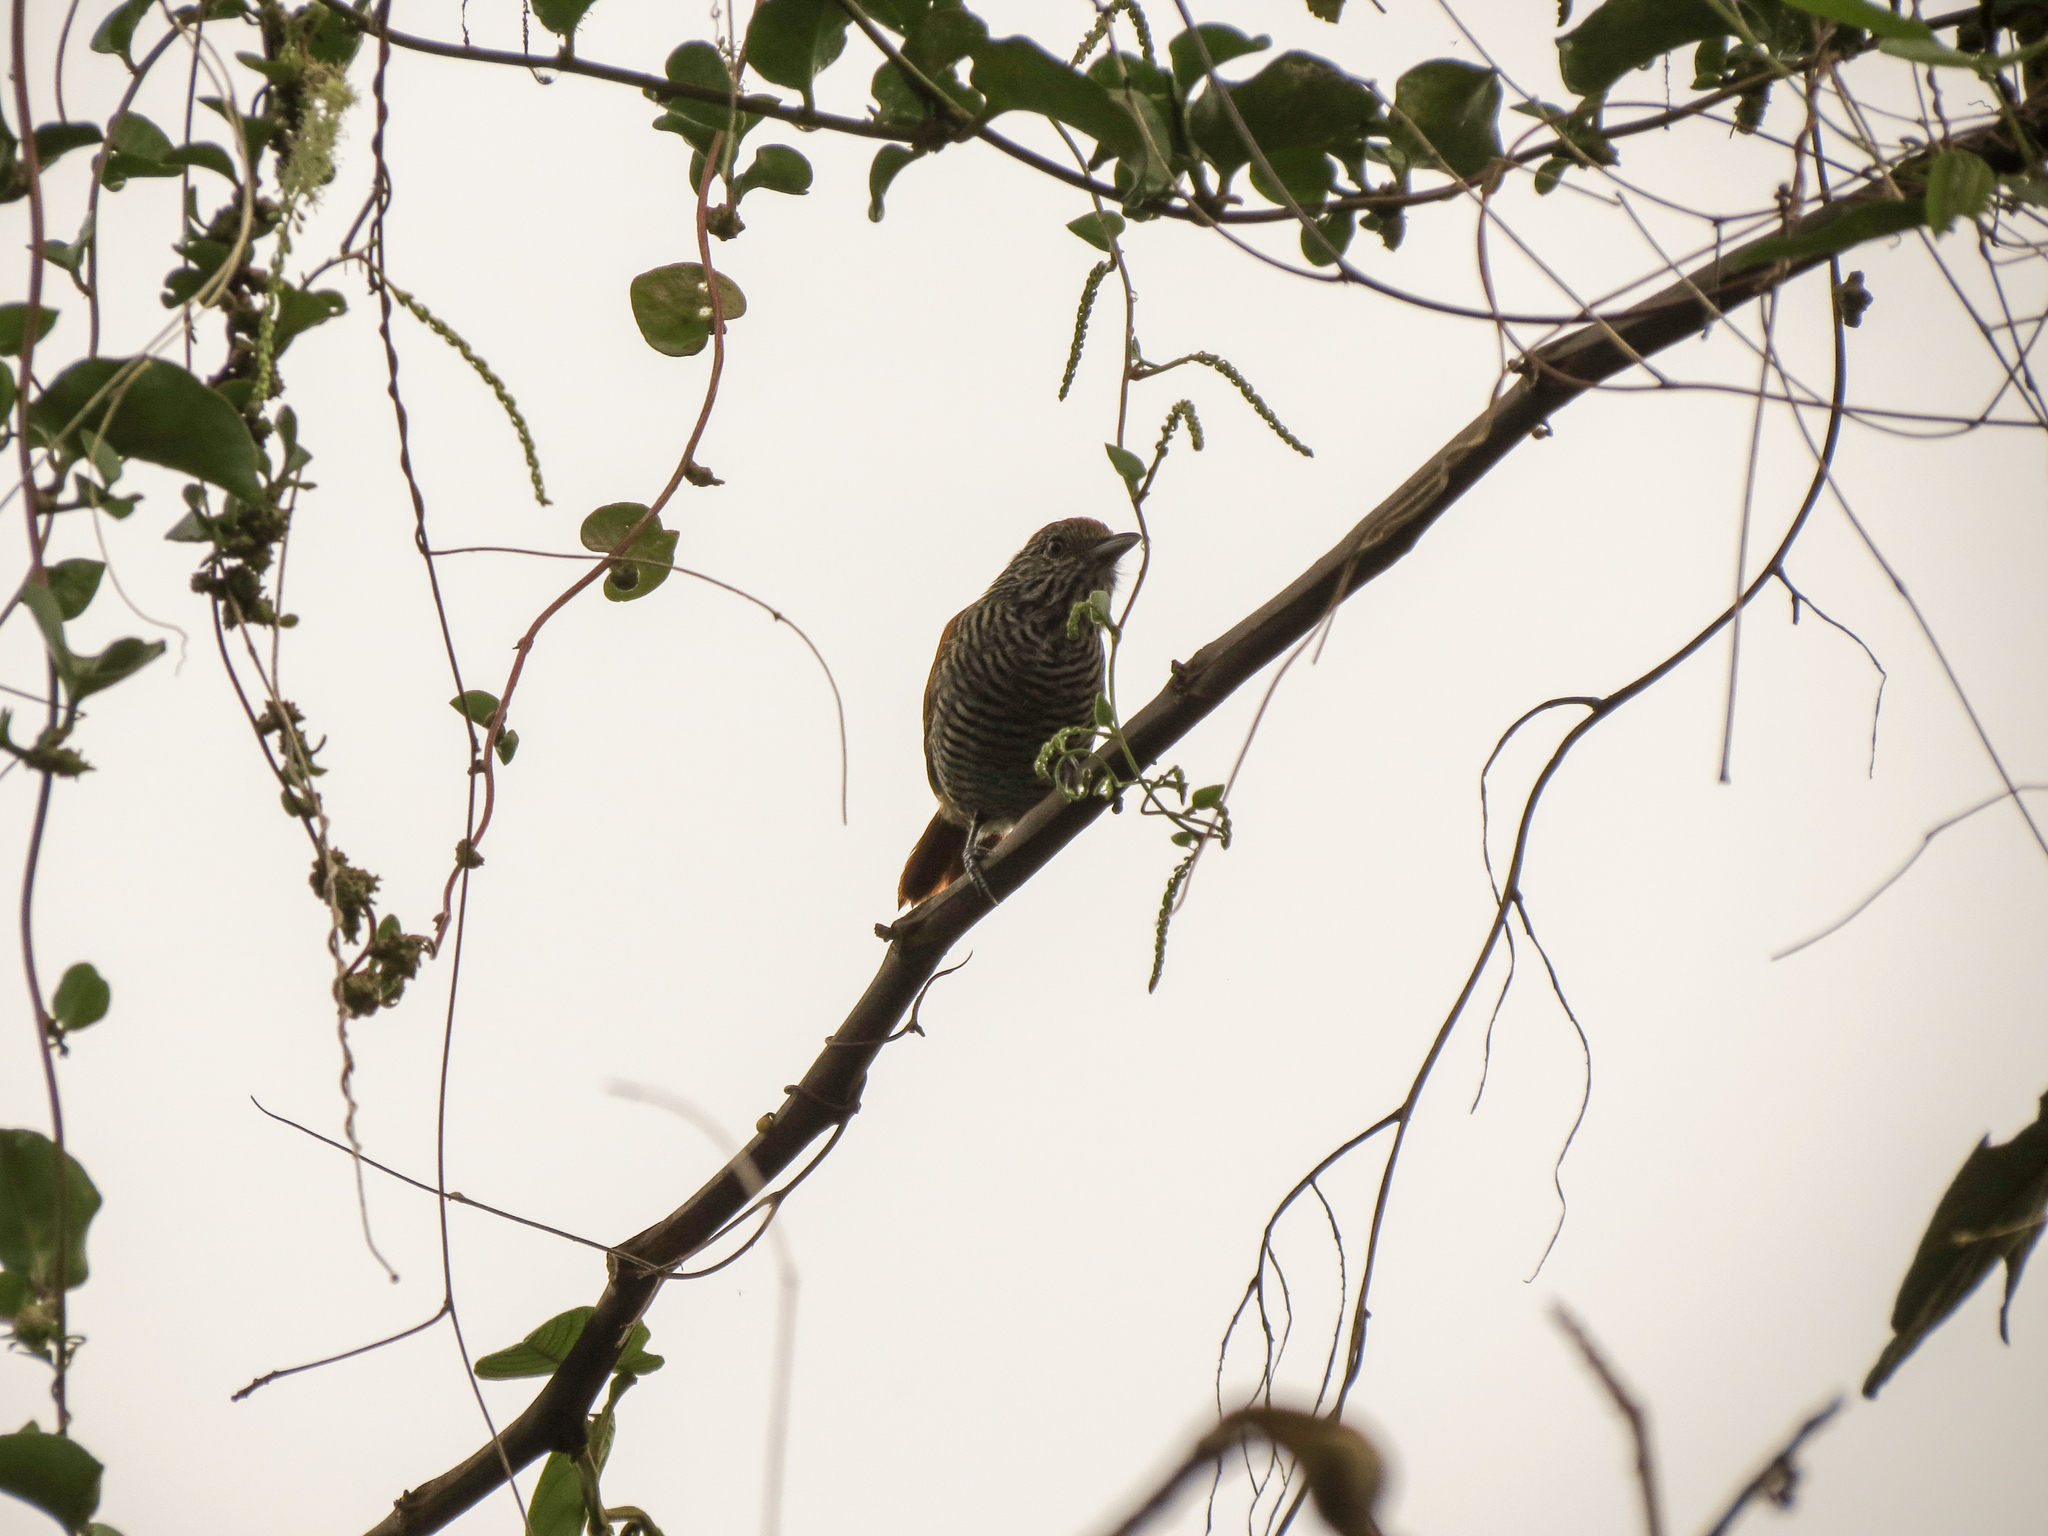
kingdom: Animalia
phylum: Chordata
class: Aves
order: Passeriformes
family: Thamnophilidae
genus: Thamnophilus
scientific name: Thamnophilus multistriatus
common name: Bar-crested antshrike
